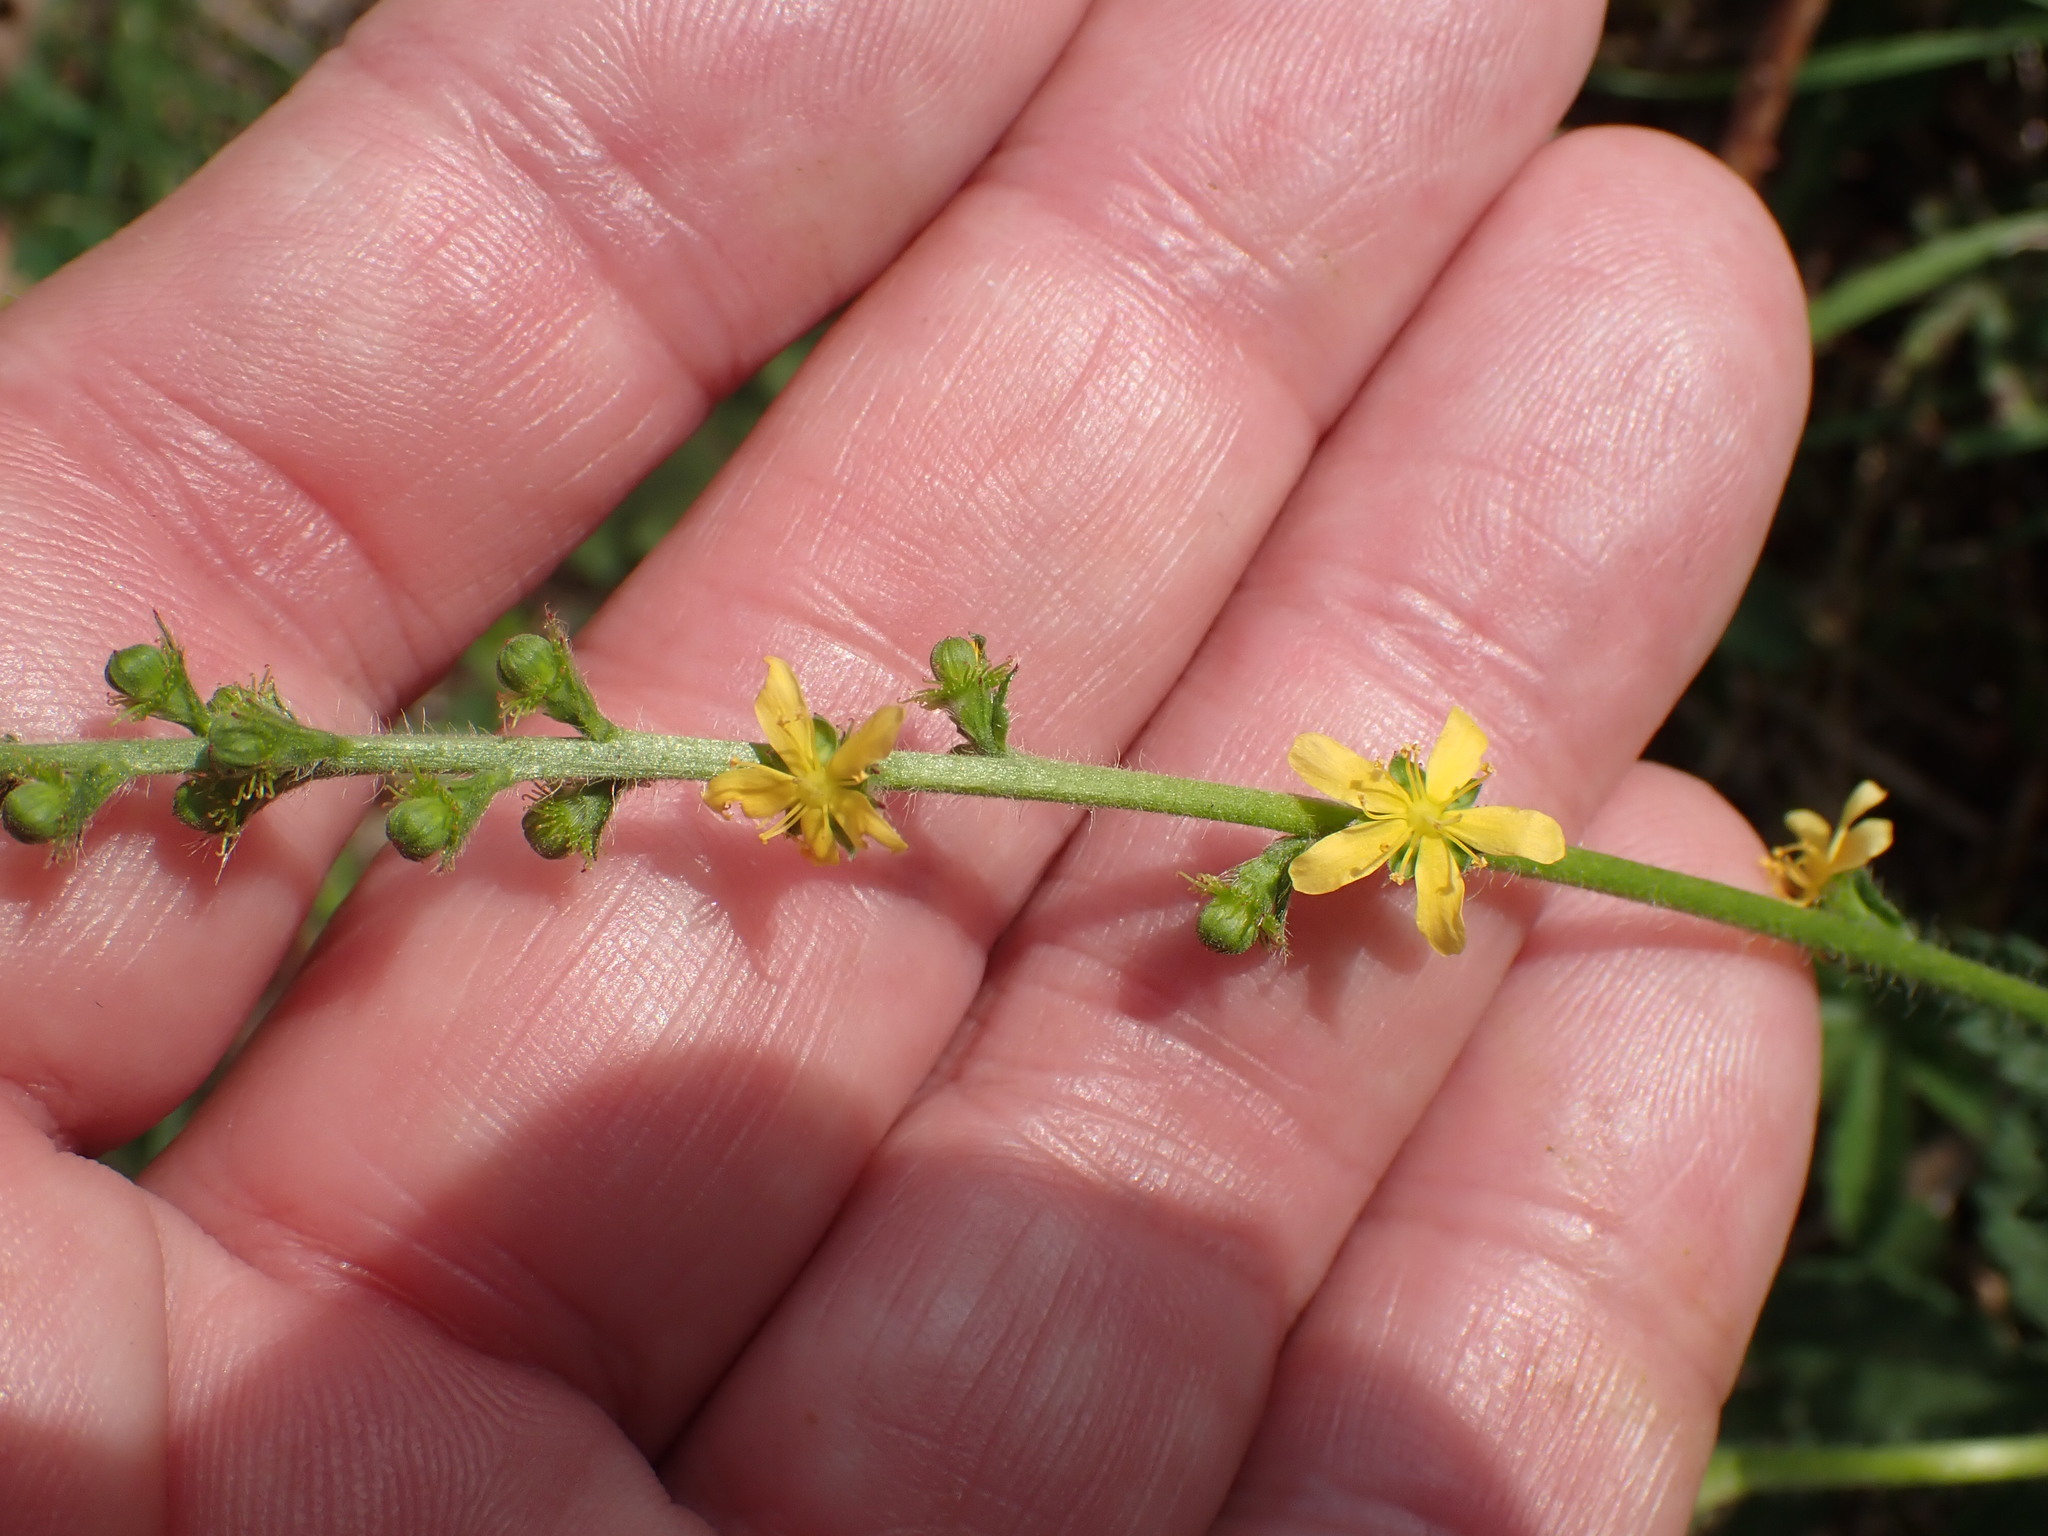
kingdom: Plantae
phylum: Tracheophyta
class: Magnoliopsida
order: Rosales
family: Rosaceae
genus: Agrimonia
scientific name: Agrimonia eupatoria
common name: Agrimony
